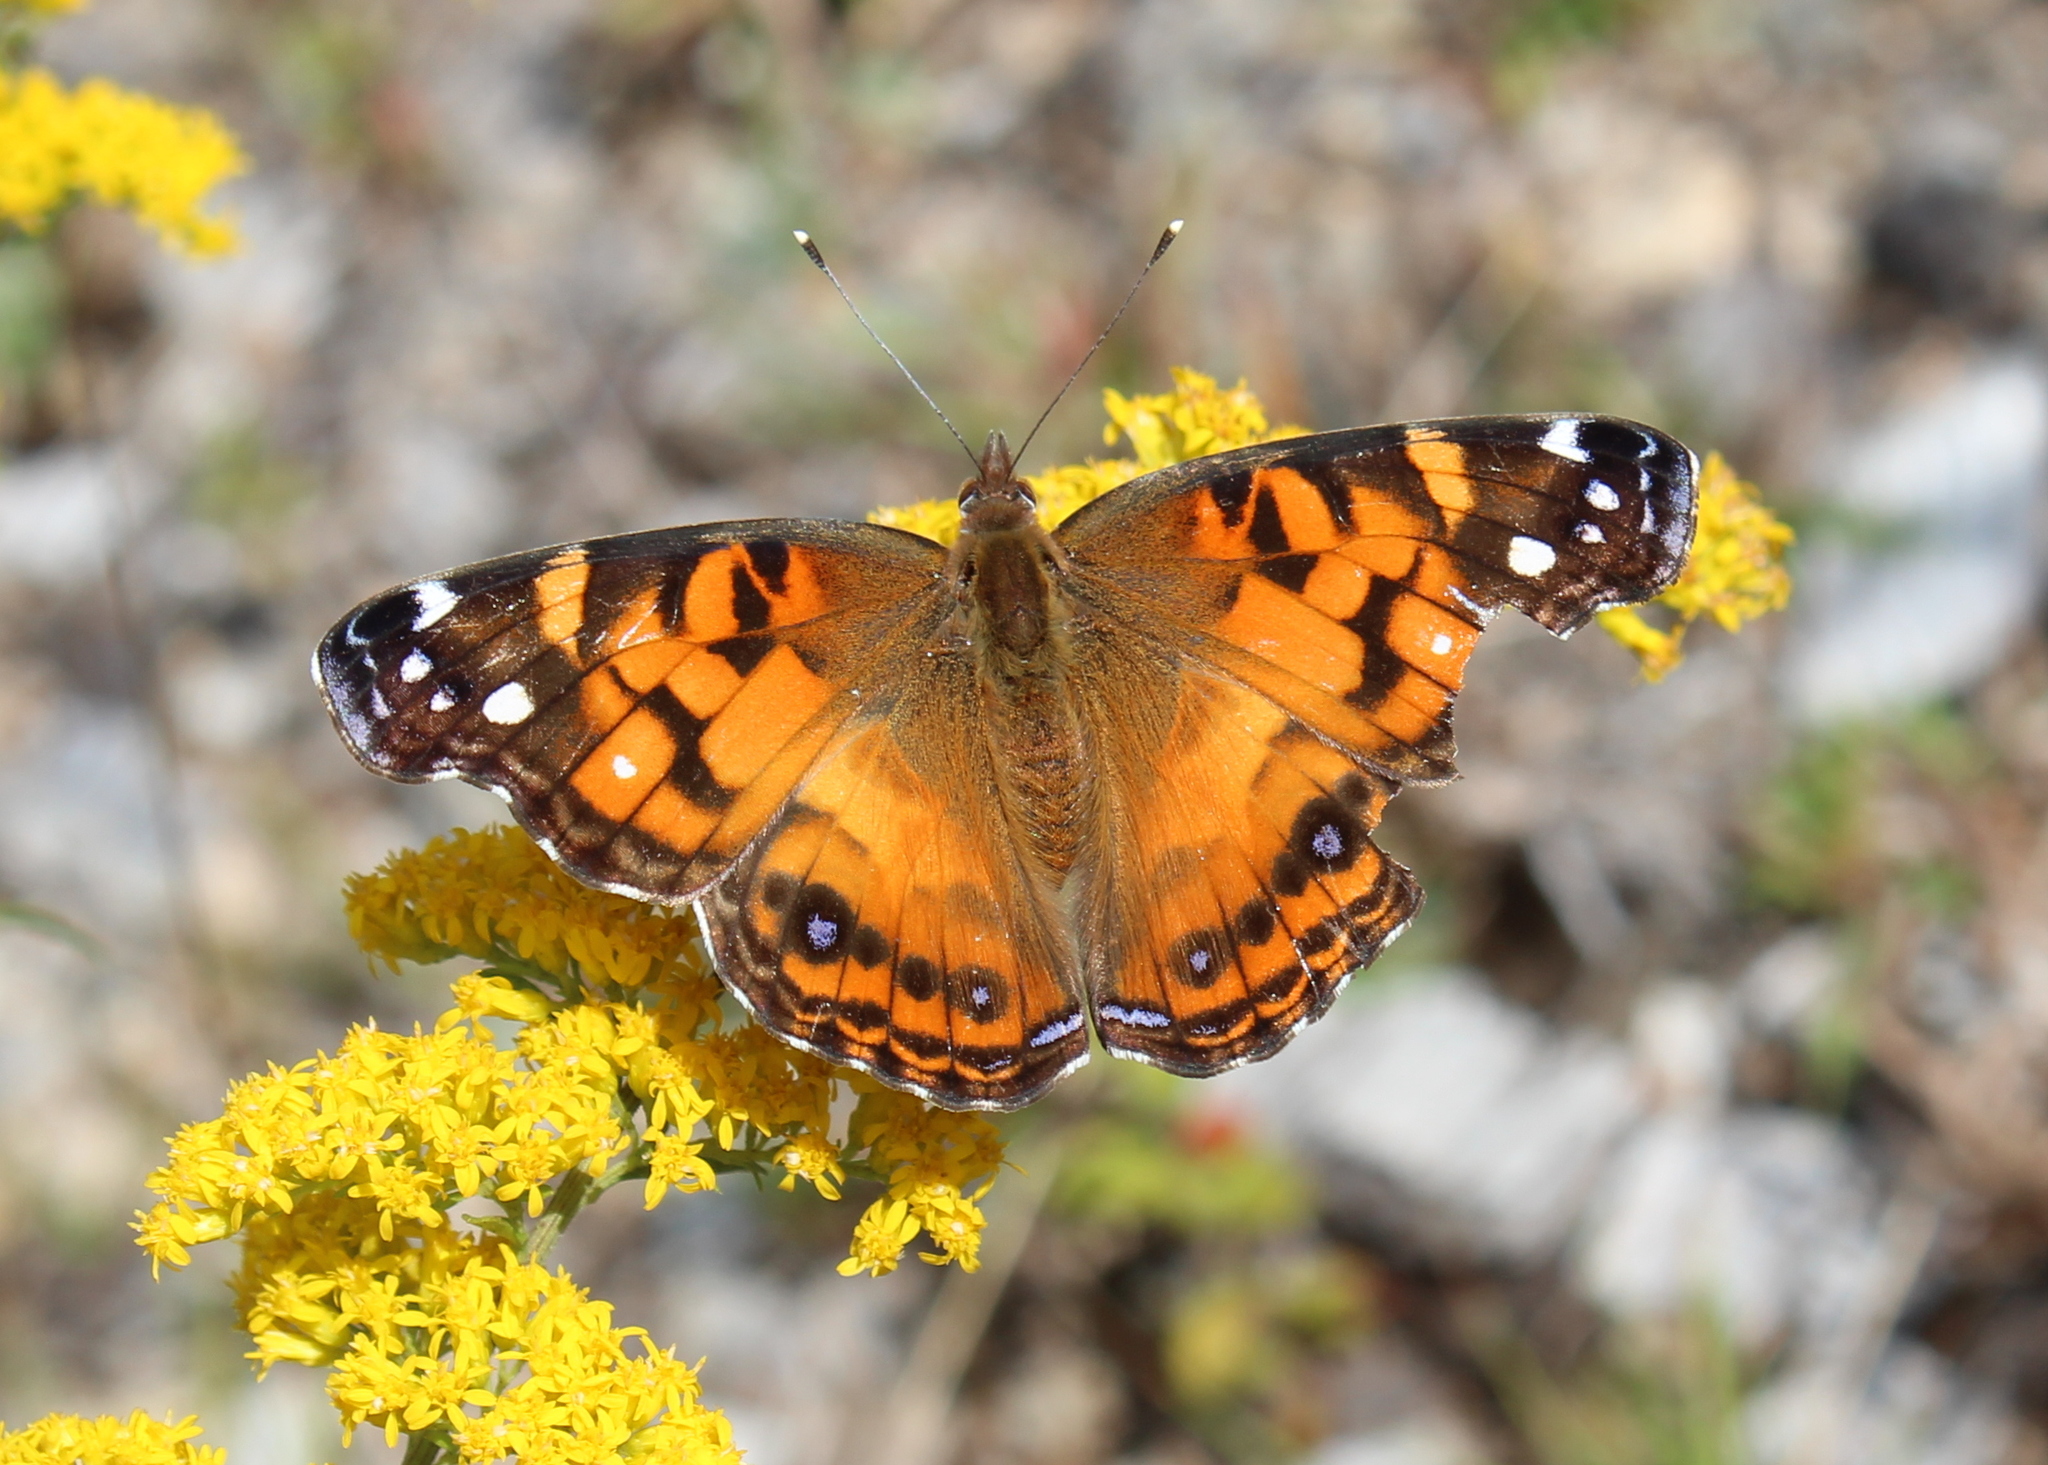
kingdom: Animalia
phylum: Arthropoda
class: Insecta
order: Lepidoptera
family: Nymphalidae
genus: Vanessa
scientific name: Vanessa virginiensis
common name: American lady
